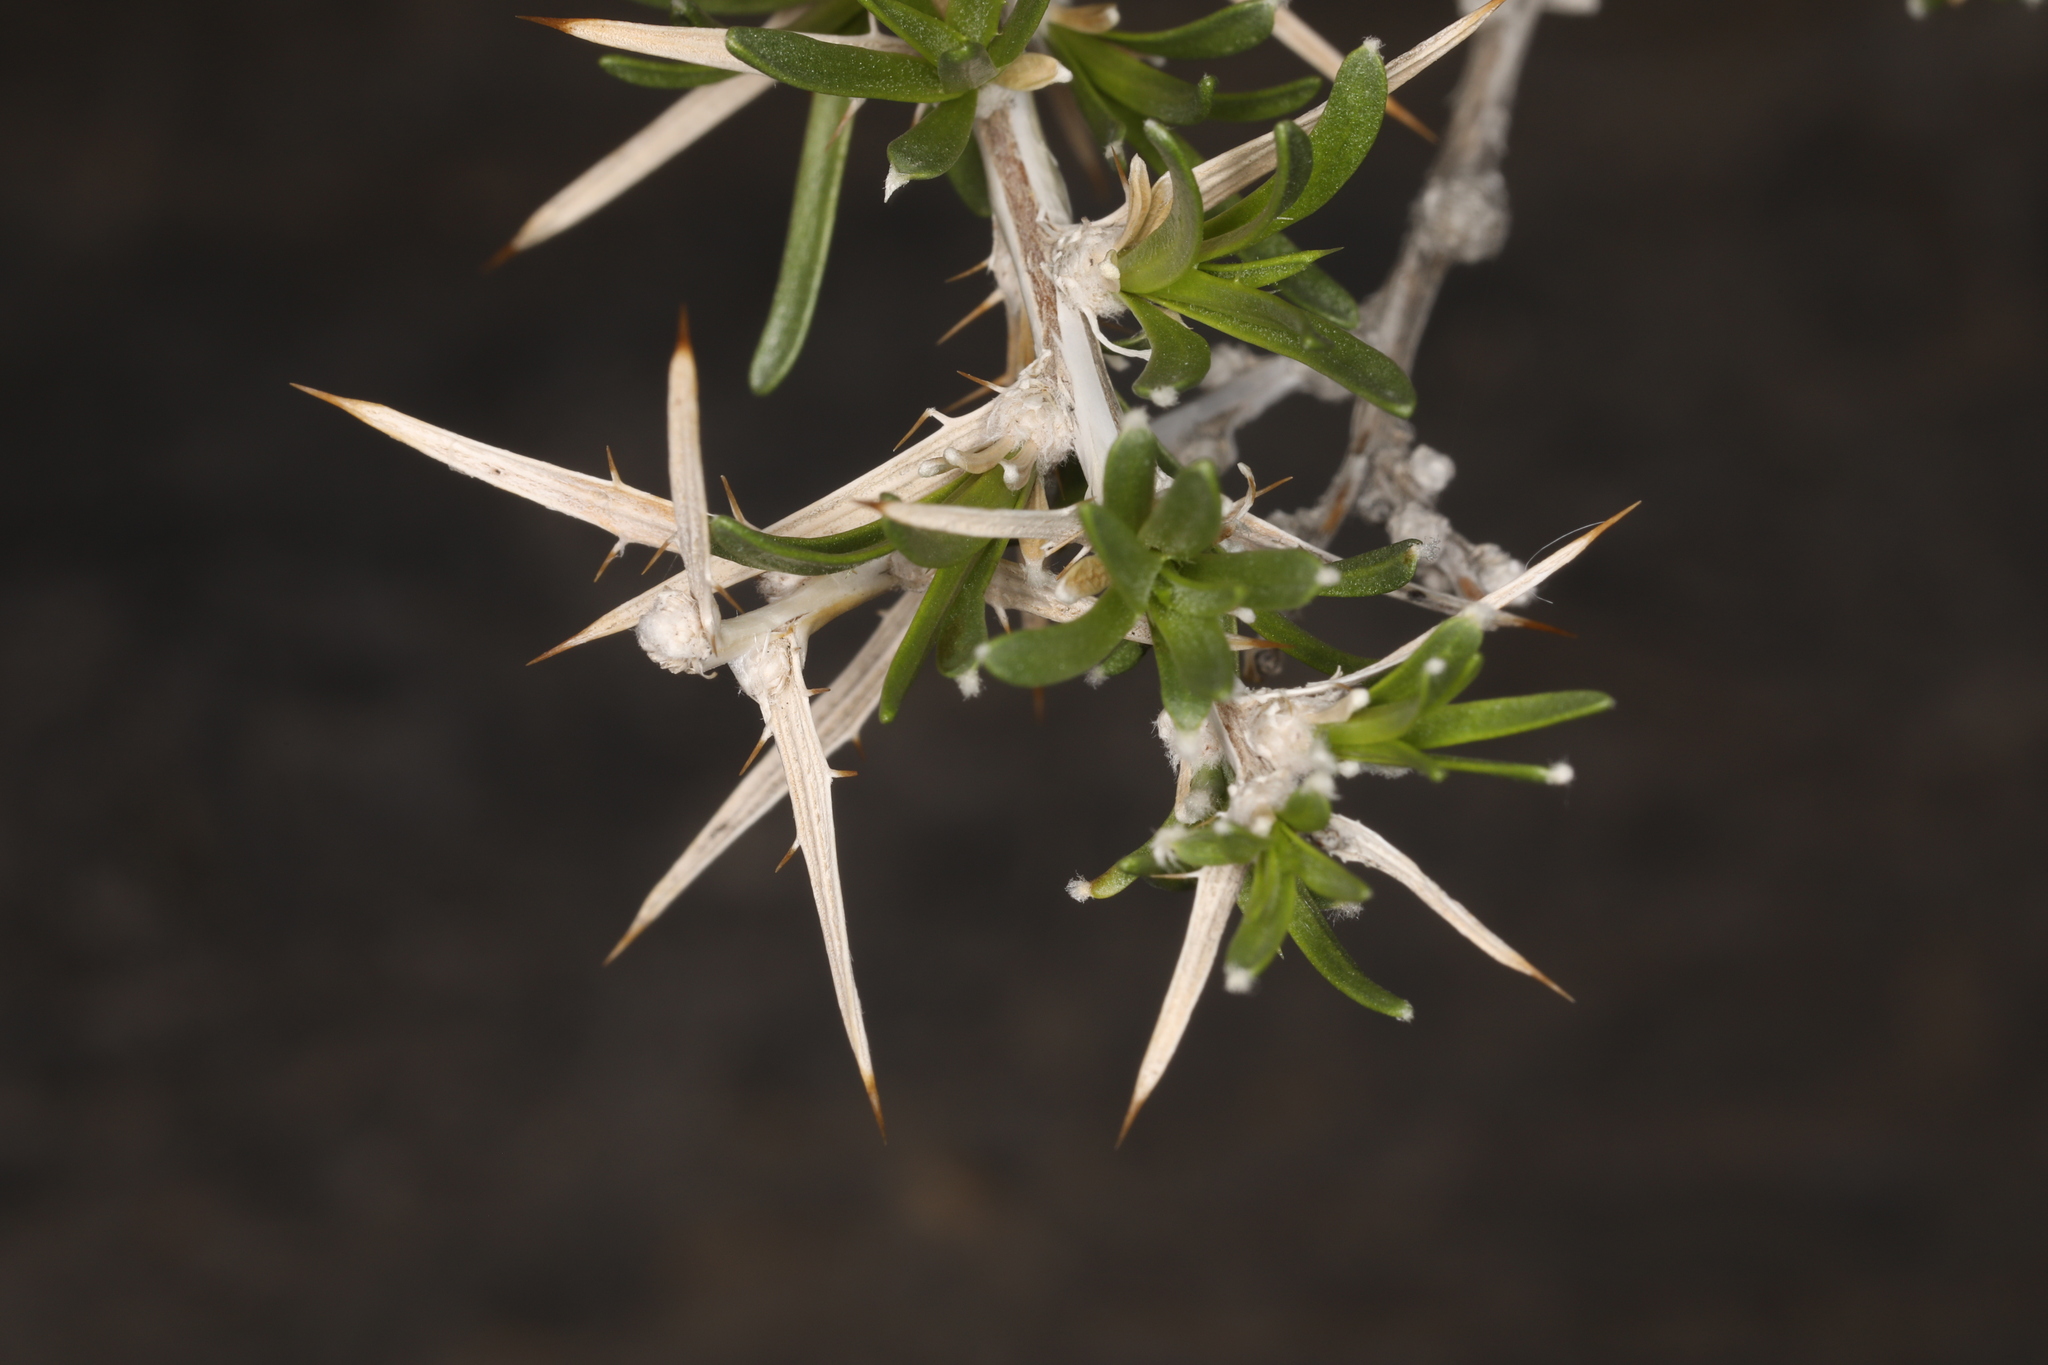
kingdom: Plantae
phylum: Tracheophyta
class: Magnoliopsida
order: Asterales
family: Asteraceae
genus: Hecastocleis
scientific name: Hecastocleis shockleyi
